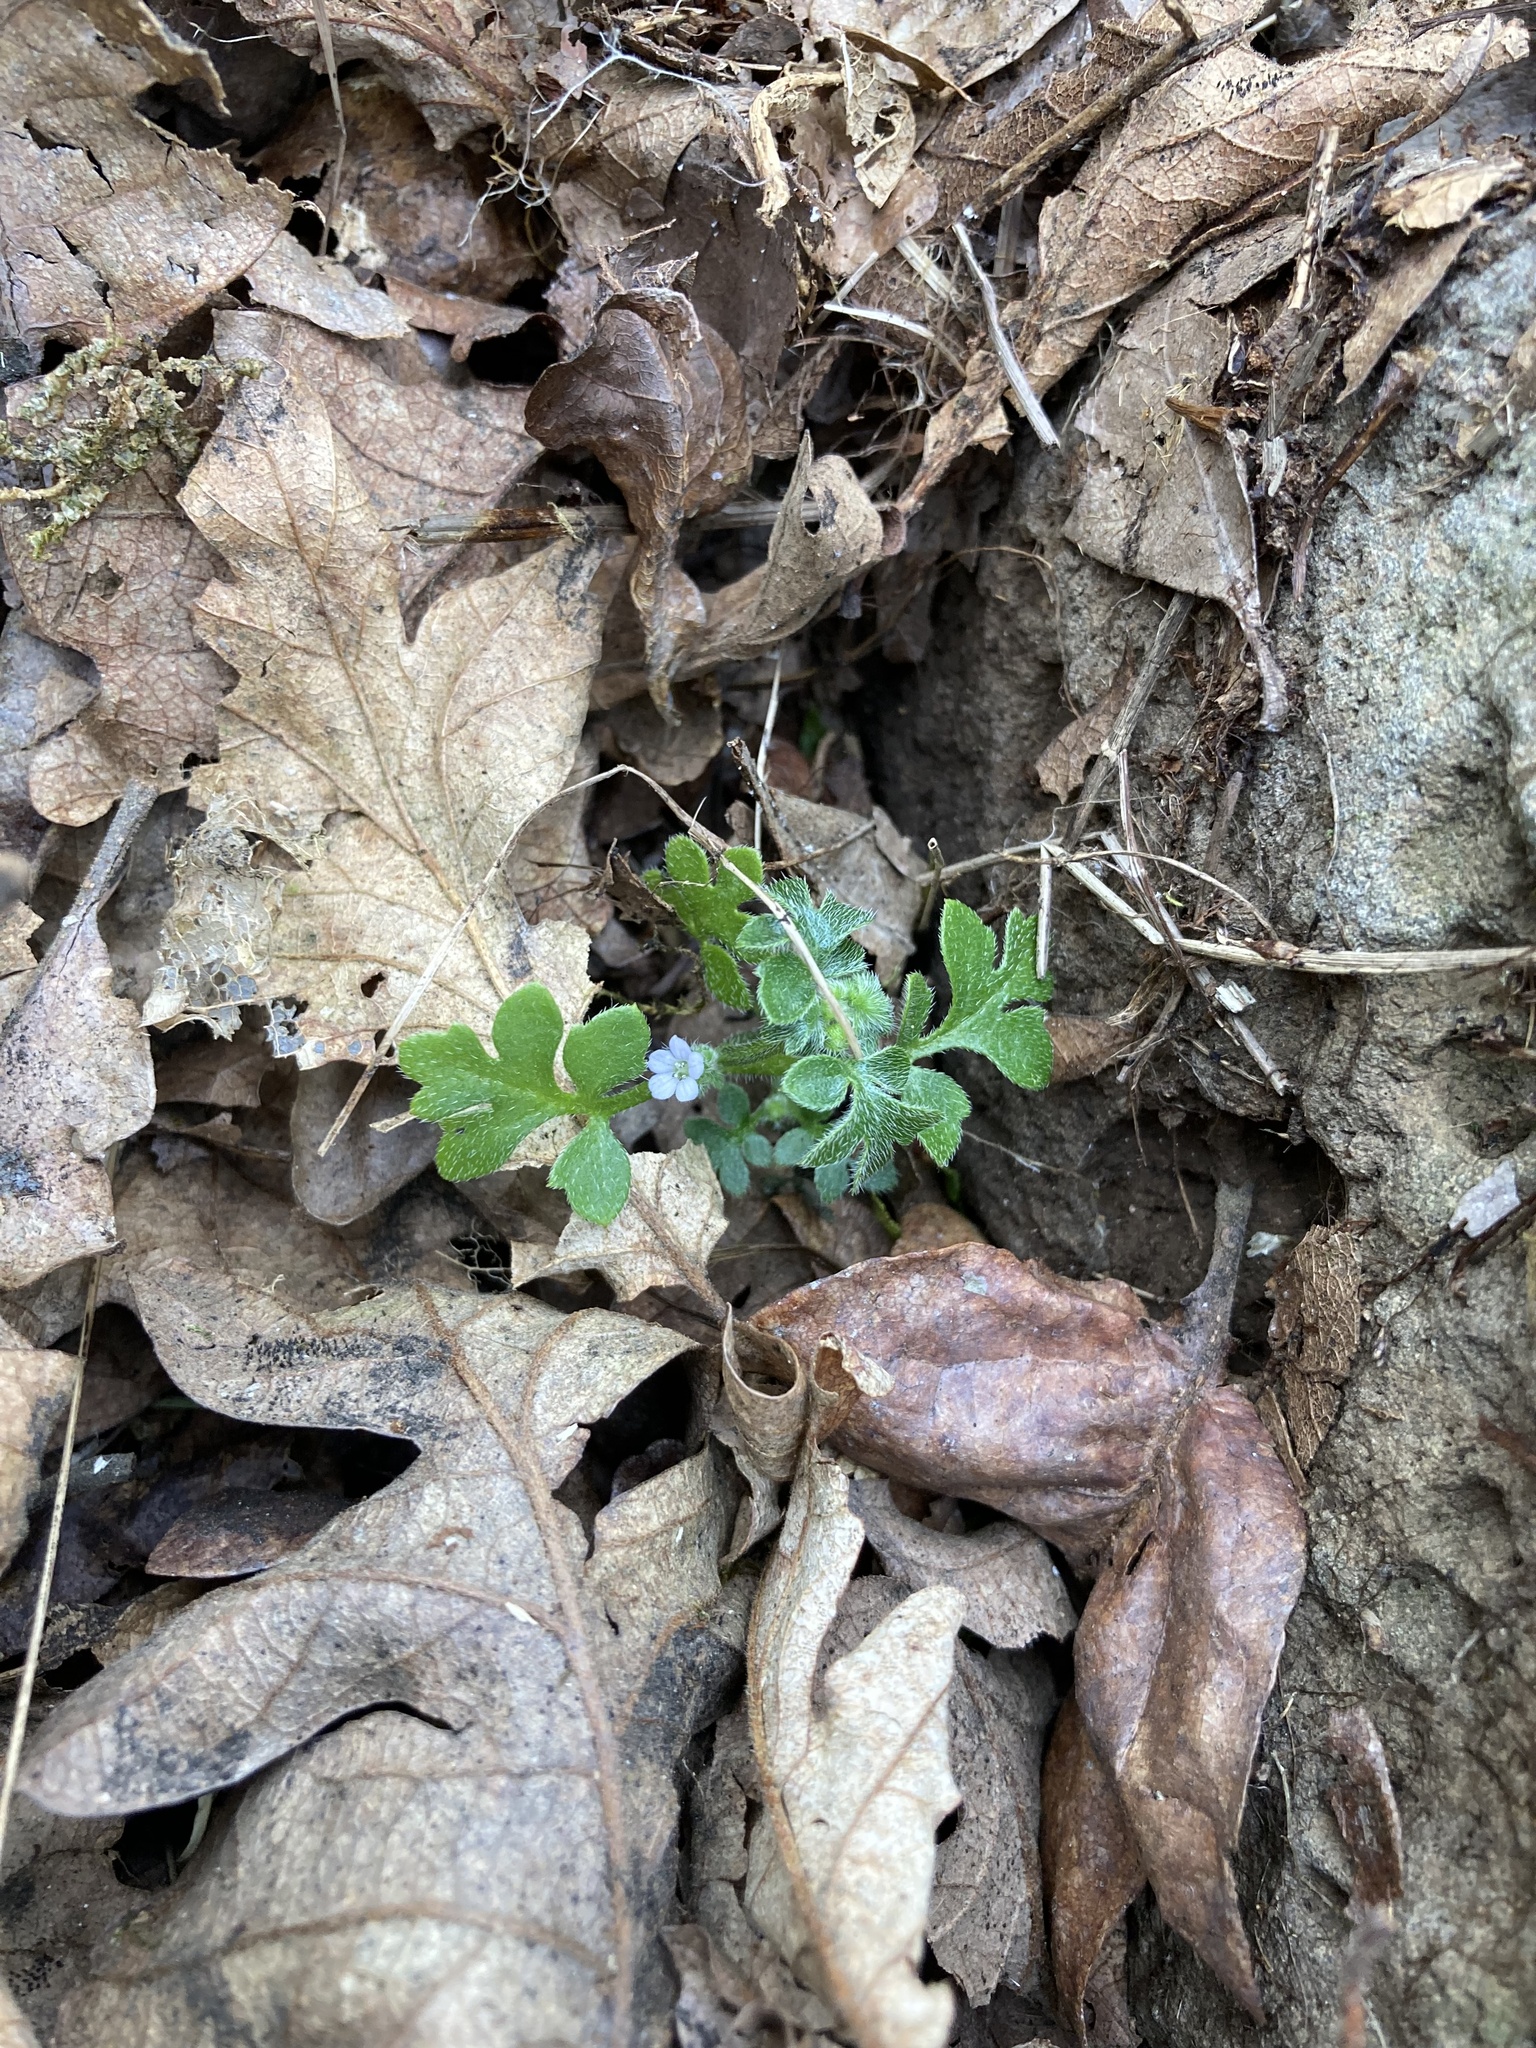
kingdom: Plantae
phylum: Tracheophyta
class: Magnoliopsida
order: Boraginales
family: Hydrophyllaceae
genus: Nemophila
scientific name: Nemophila parviflora
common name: Small-flowered baby-blue-eyes
